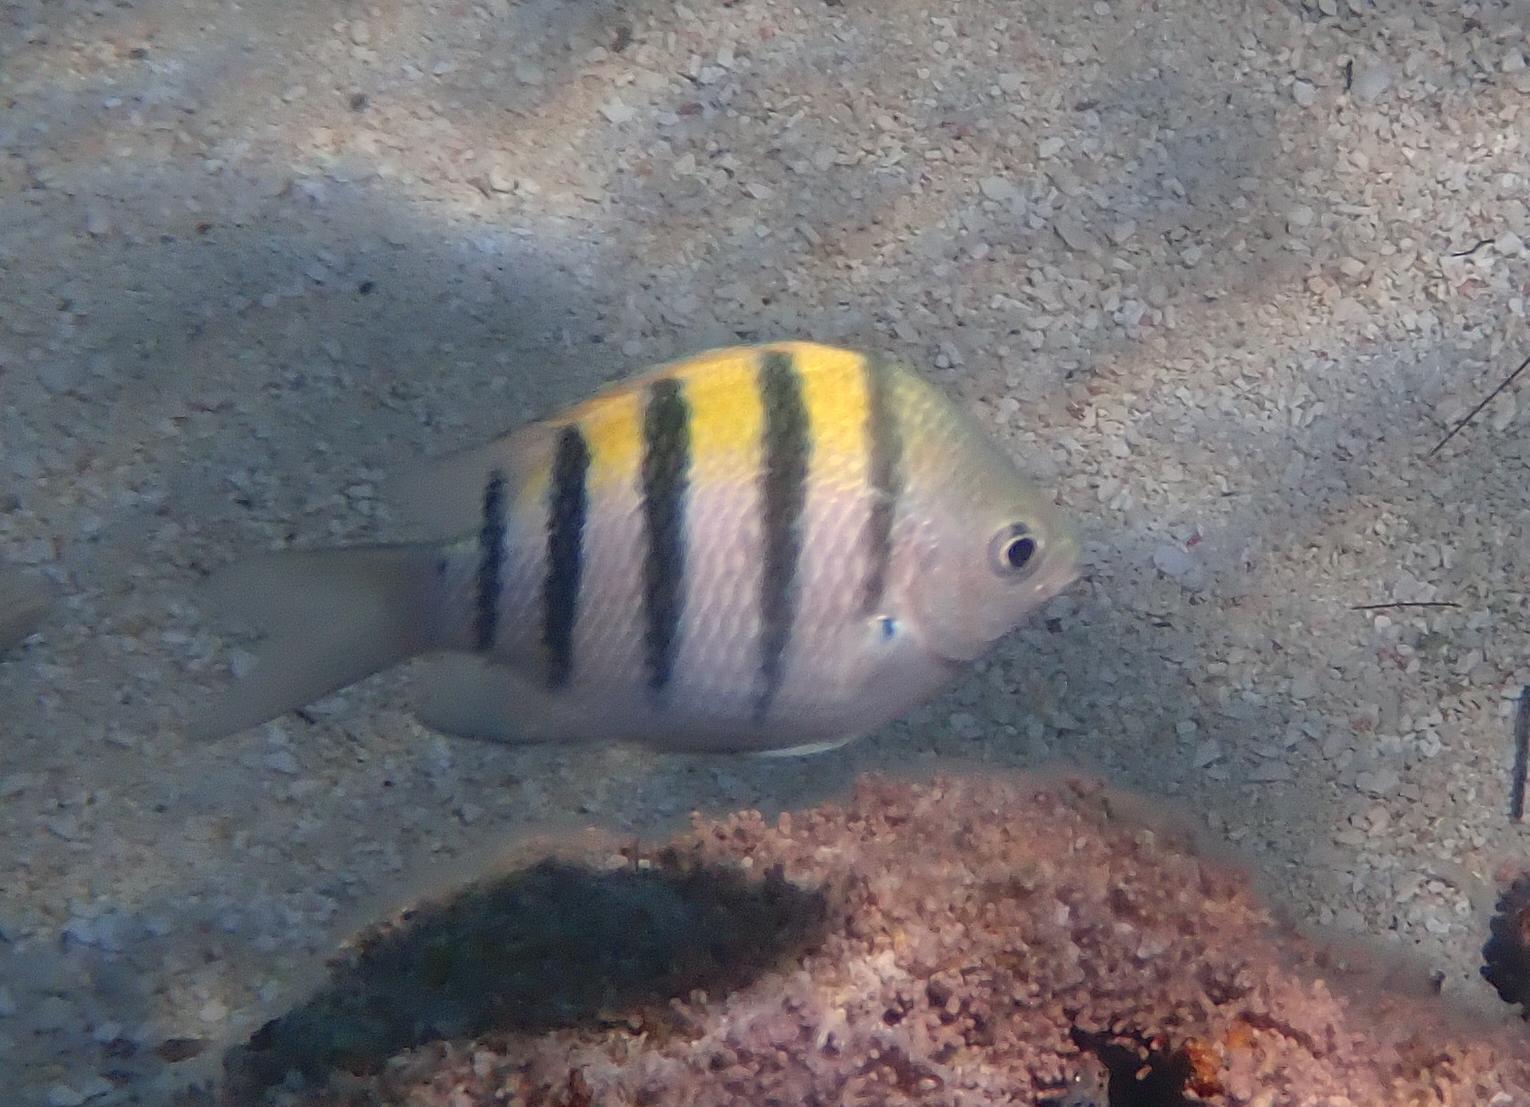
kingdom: Animalia
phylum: Chordata
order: Perciformes
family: Pomacentridae
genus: Abudefduf
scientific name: Abudefduf saxatilis
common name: Sergeant major
